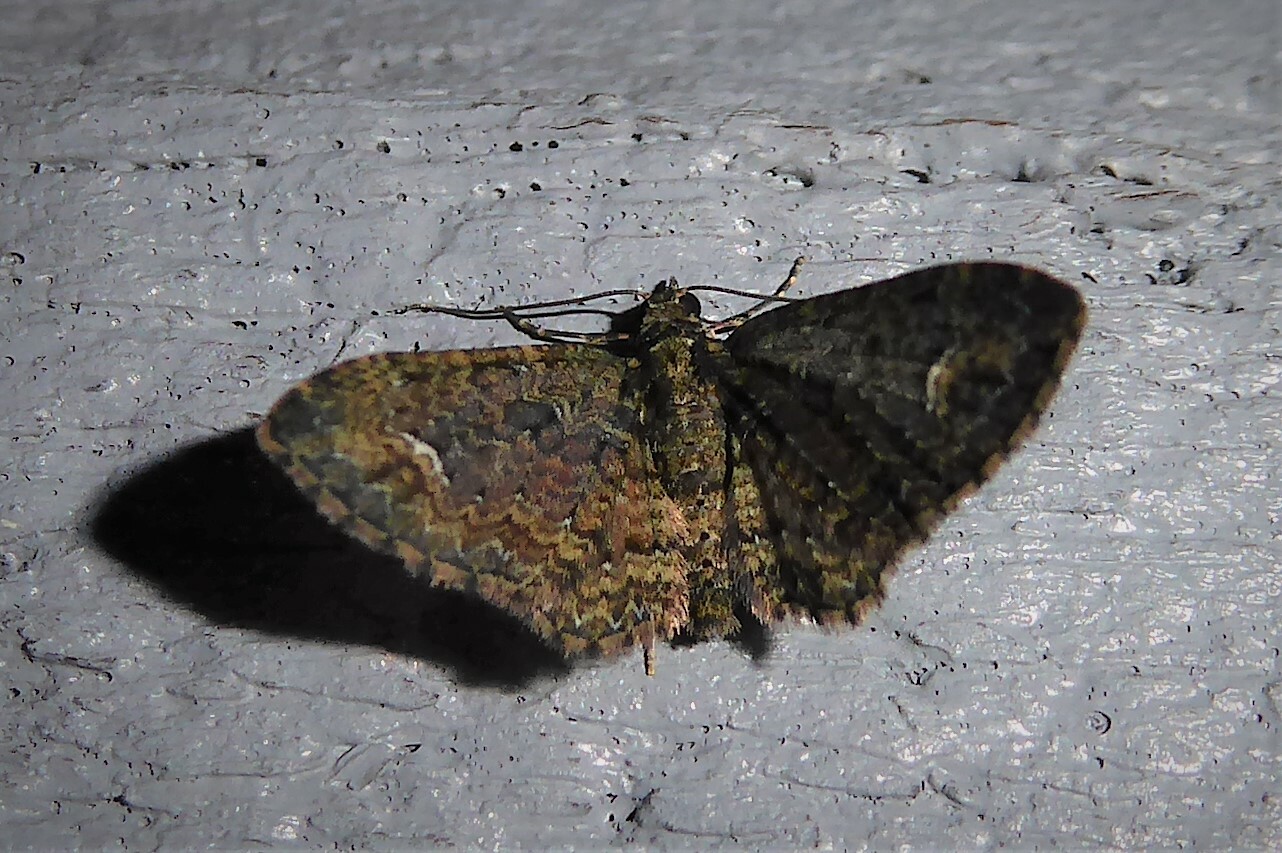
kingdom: Animalia
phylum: Arthropoda
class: Insecta
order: Lepidoptera
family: Geometridae
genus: Pasiphilodes
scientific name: Pasiphilodes testulata
